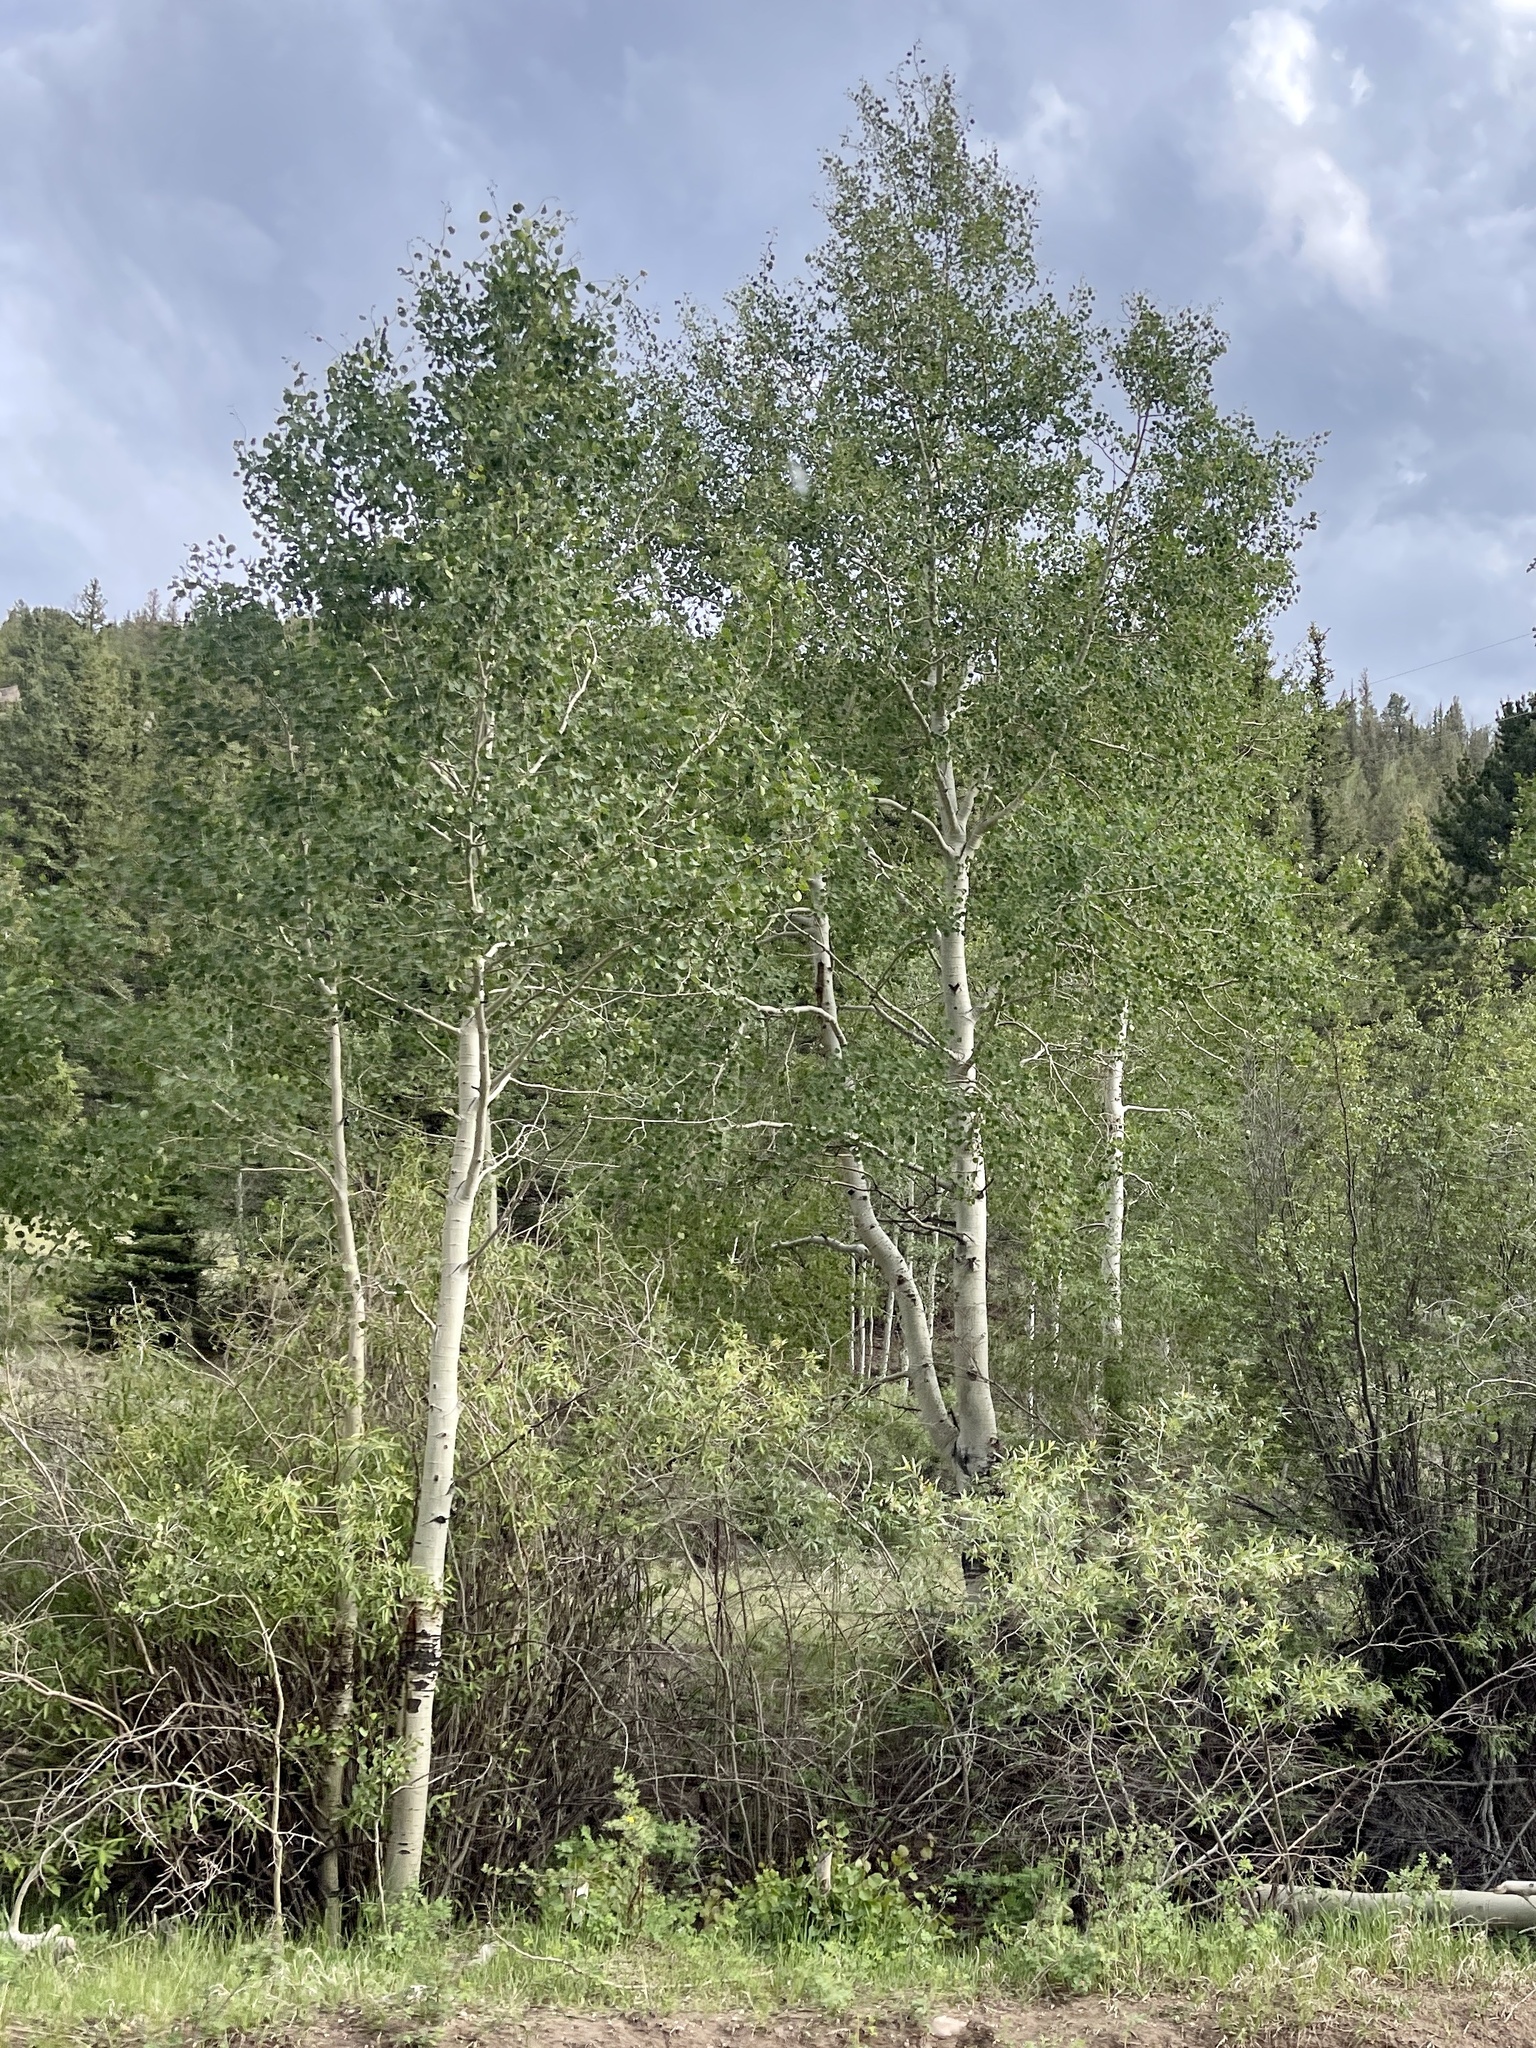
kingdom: Plantae
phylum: Tracheophyta
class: Magnoliopsida
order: Malpighiales
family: Salicaceae
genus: Populus
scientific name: Populus tremuloides
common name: Quaking aspen
